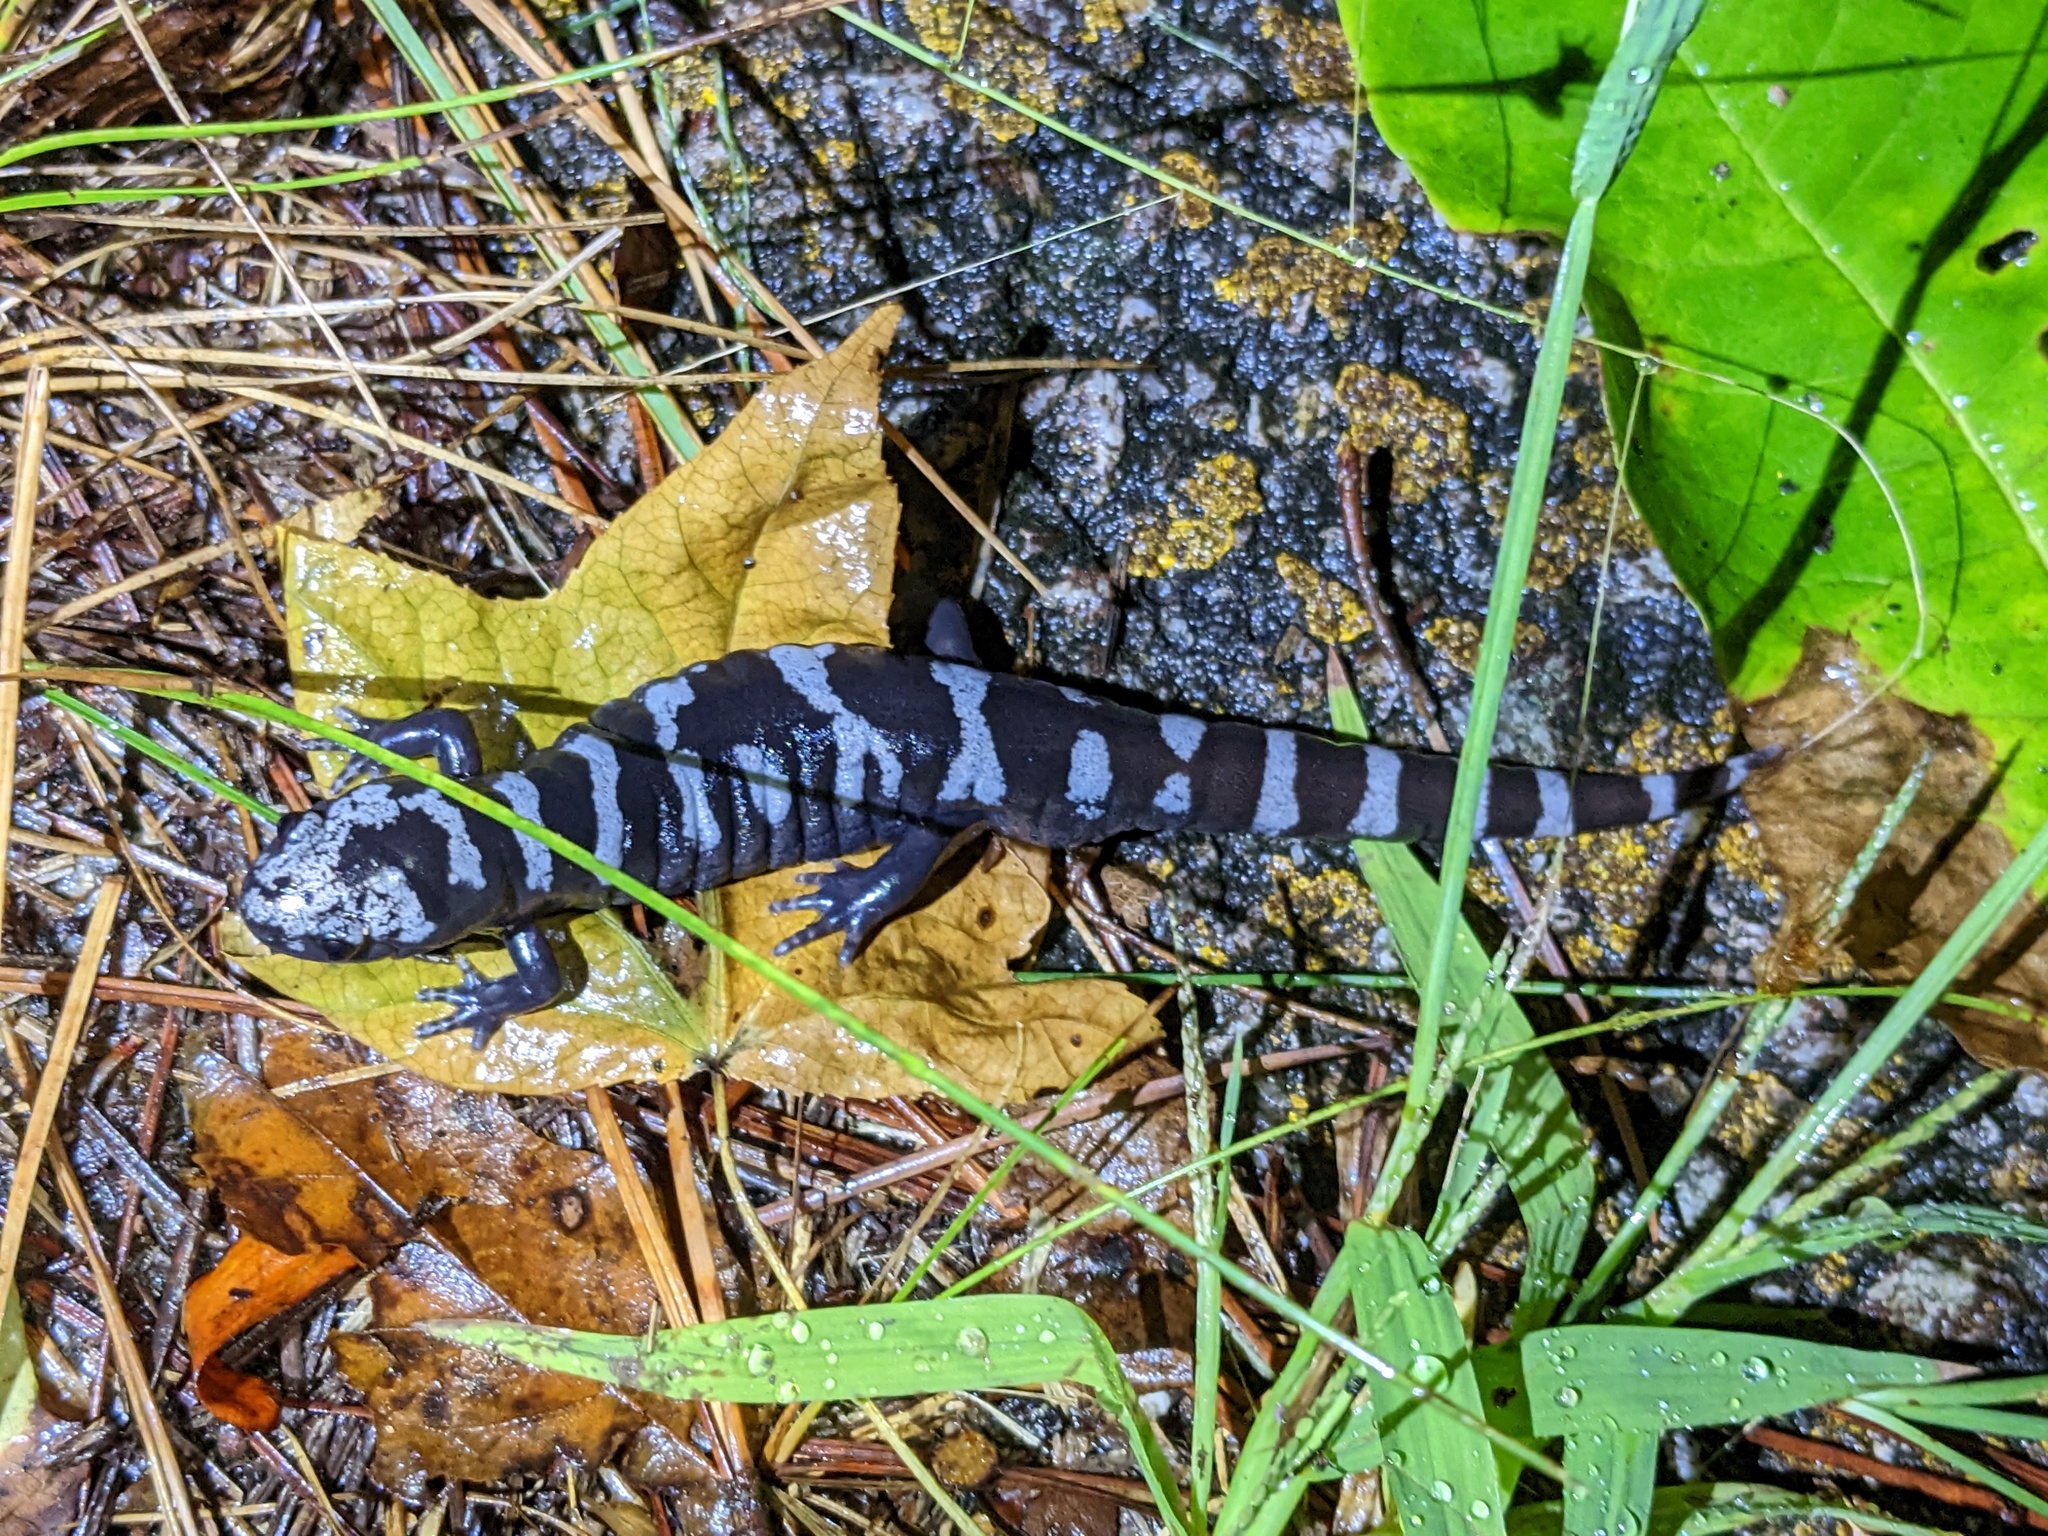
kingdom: Animalia
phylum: Chordata
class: Amphibia
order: Caudata
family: Ambystomatidae
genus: Ambystoma
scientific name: Ambystoma opacum
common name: Marbled salamander
